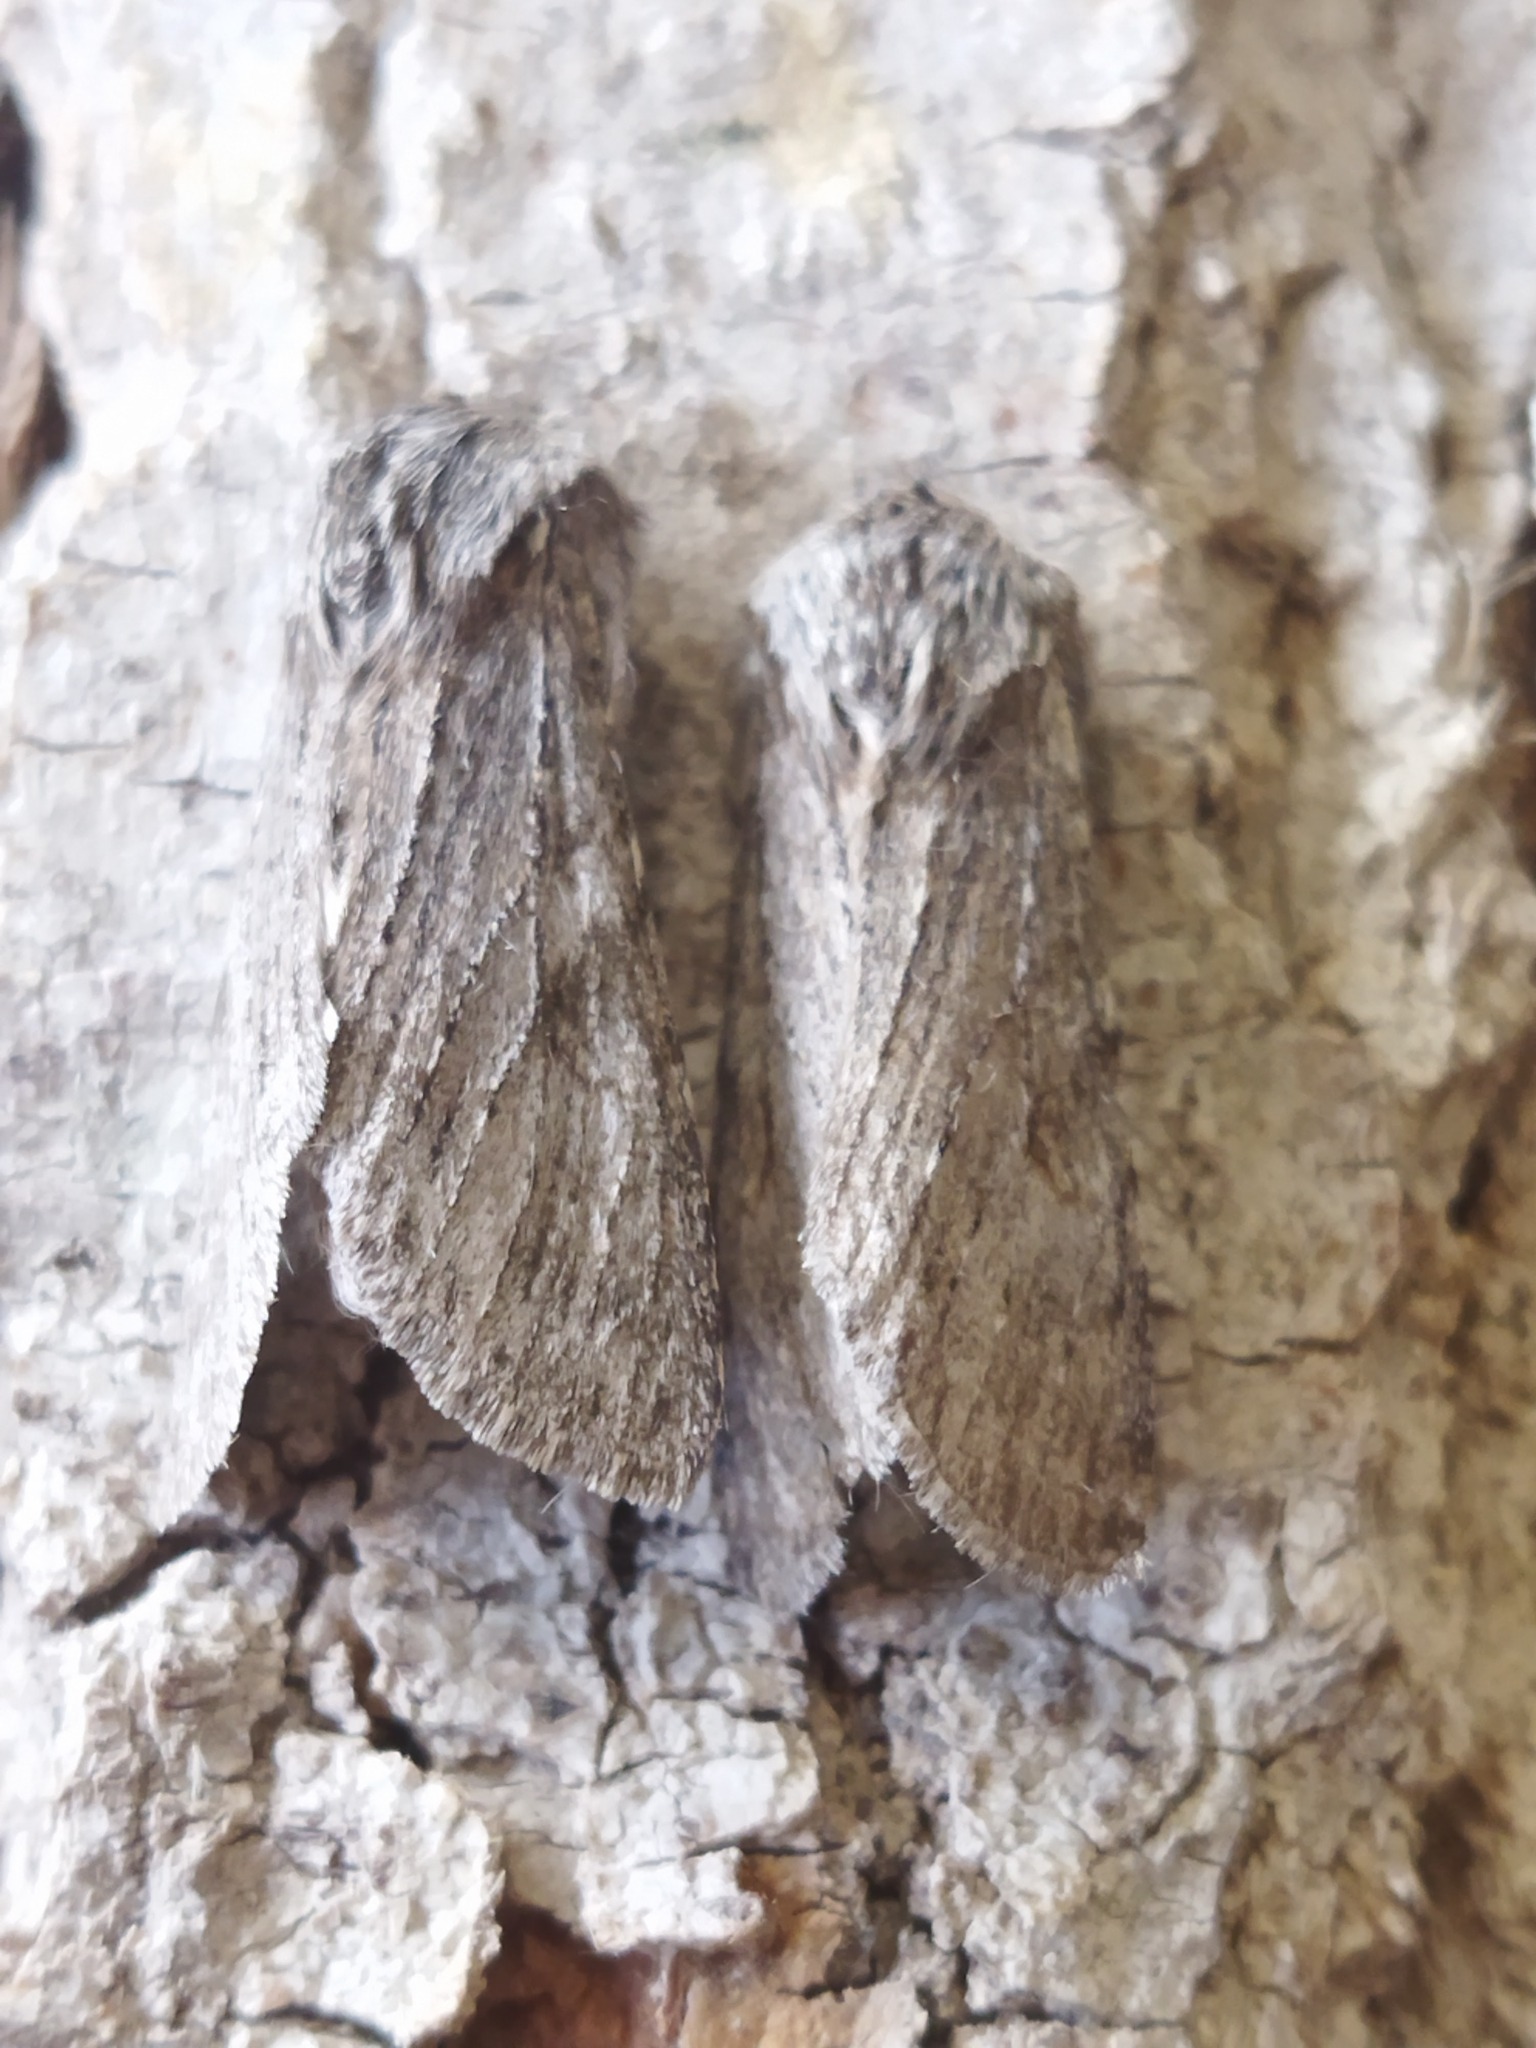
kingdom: Animalia
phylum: Arthropoda
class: Insecta
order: Lepidoptera
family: Notodontidae
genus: Dicranura
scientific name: Dicranura ulmi
